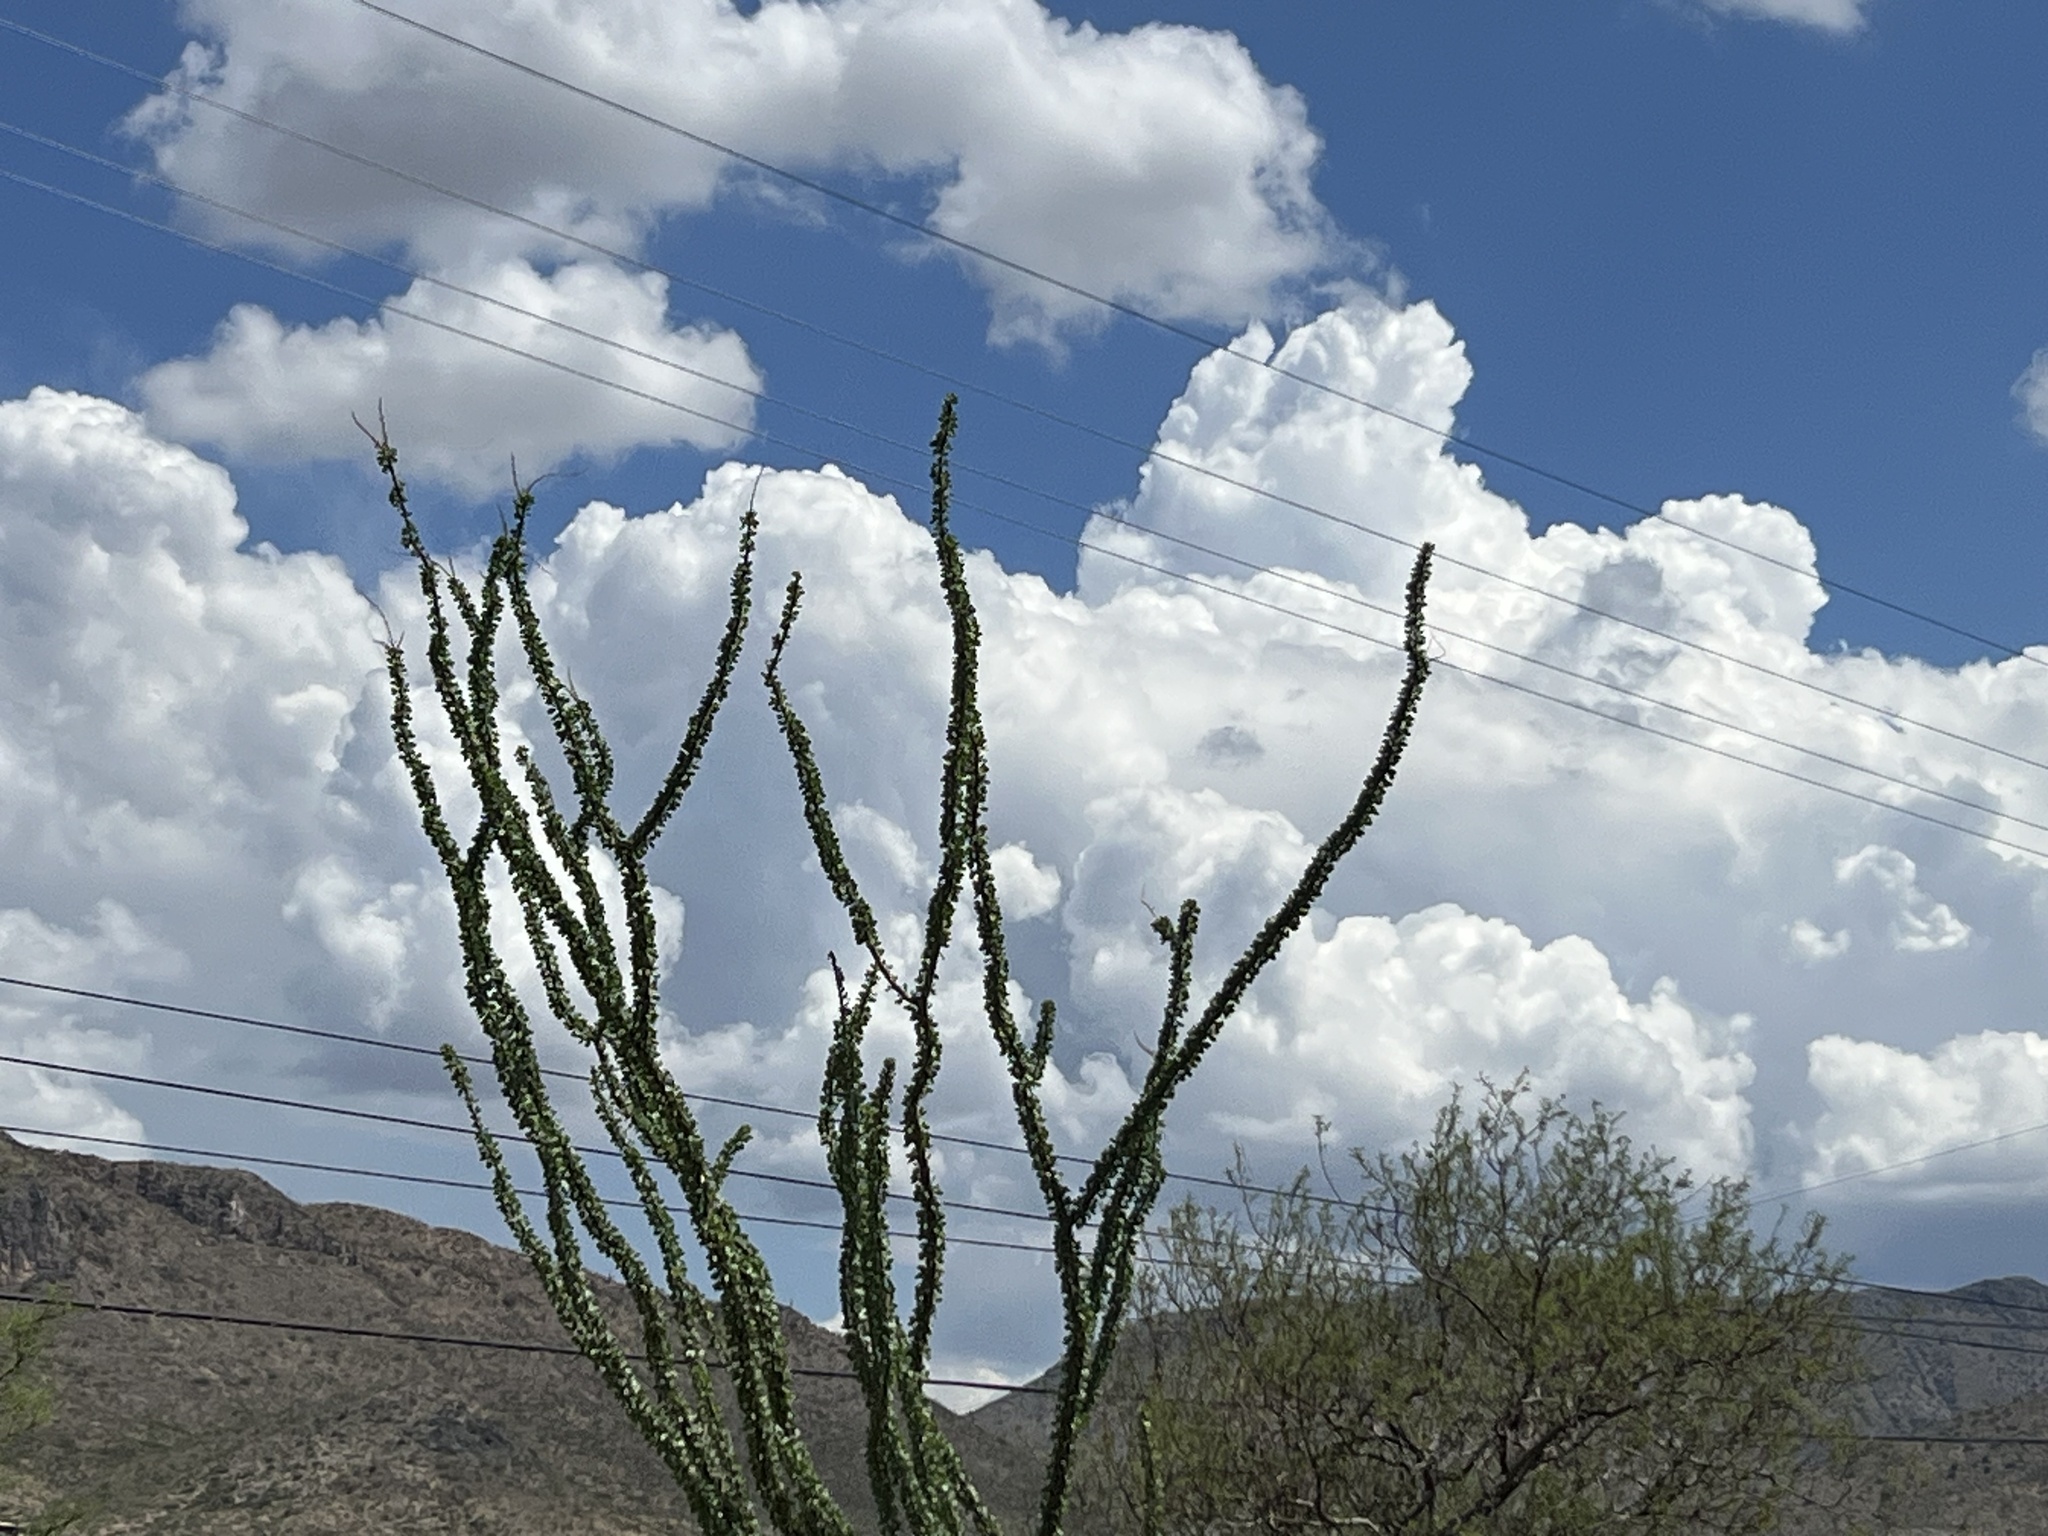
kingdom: Plantae
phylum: Tracheophyta
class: Magnoliopsida
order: Ericales
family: Fouquieriaceae
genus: Fouquieria
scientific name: Fouquieria splendens
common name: Vine-cactus
